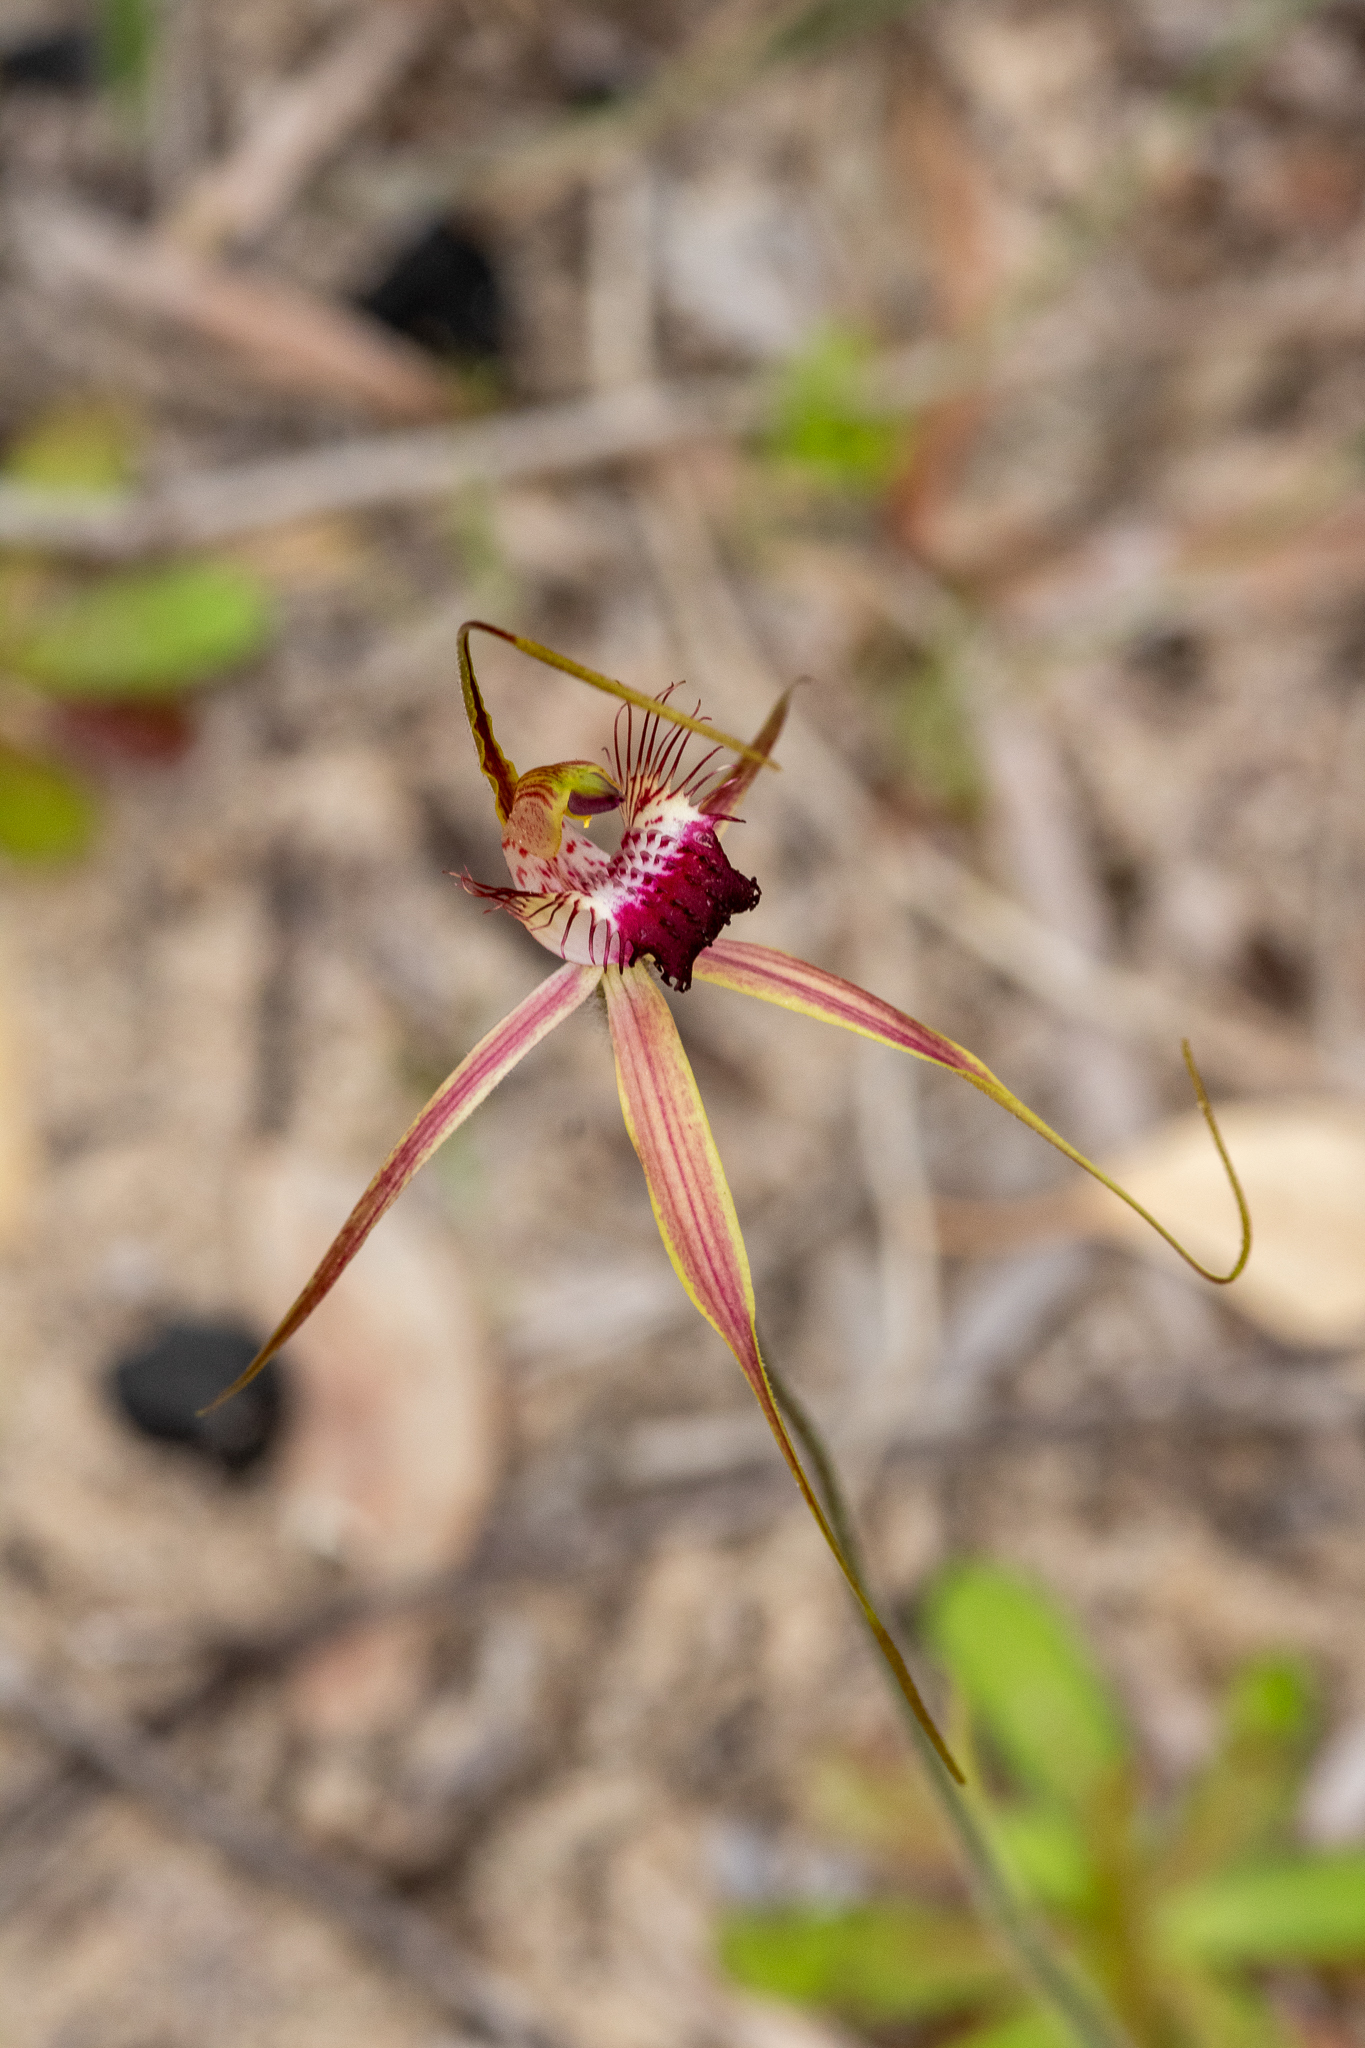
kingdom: Plantae
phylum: Tracheophyta
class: Liliopsida
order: Asparagales
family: Orchidaceae
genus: Caladenia
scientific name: Caladenia georgei
